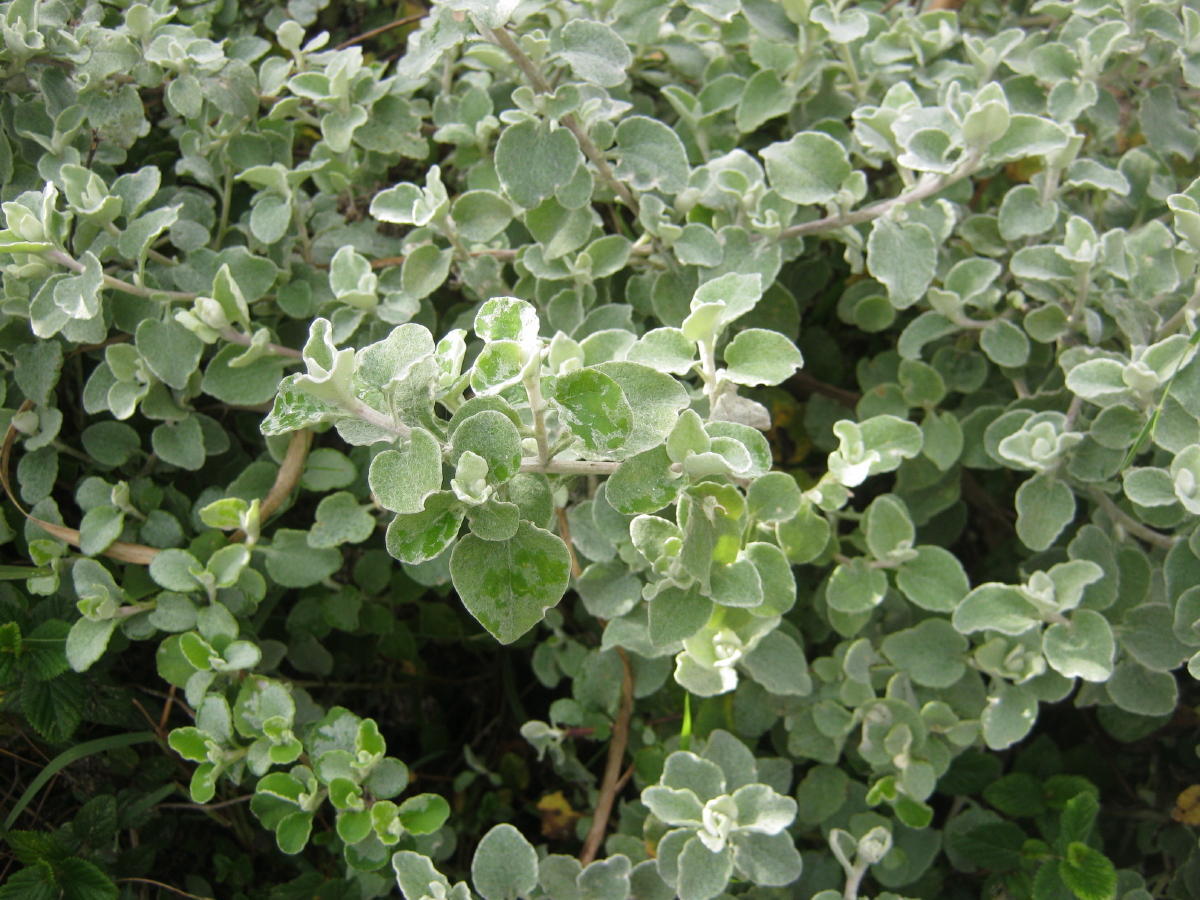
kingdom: Plantae
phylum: Tracheophyta
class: Magnoliopsida
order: Asterales
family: Asteraceae
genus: Helichrysum
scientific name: Helichrysum petiolare
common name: Licorice-plant
